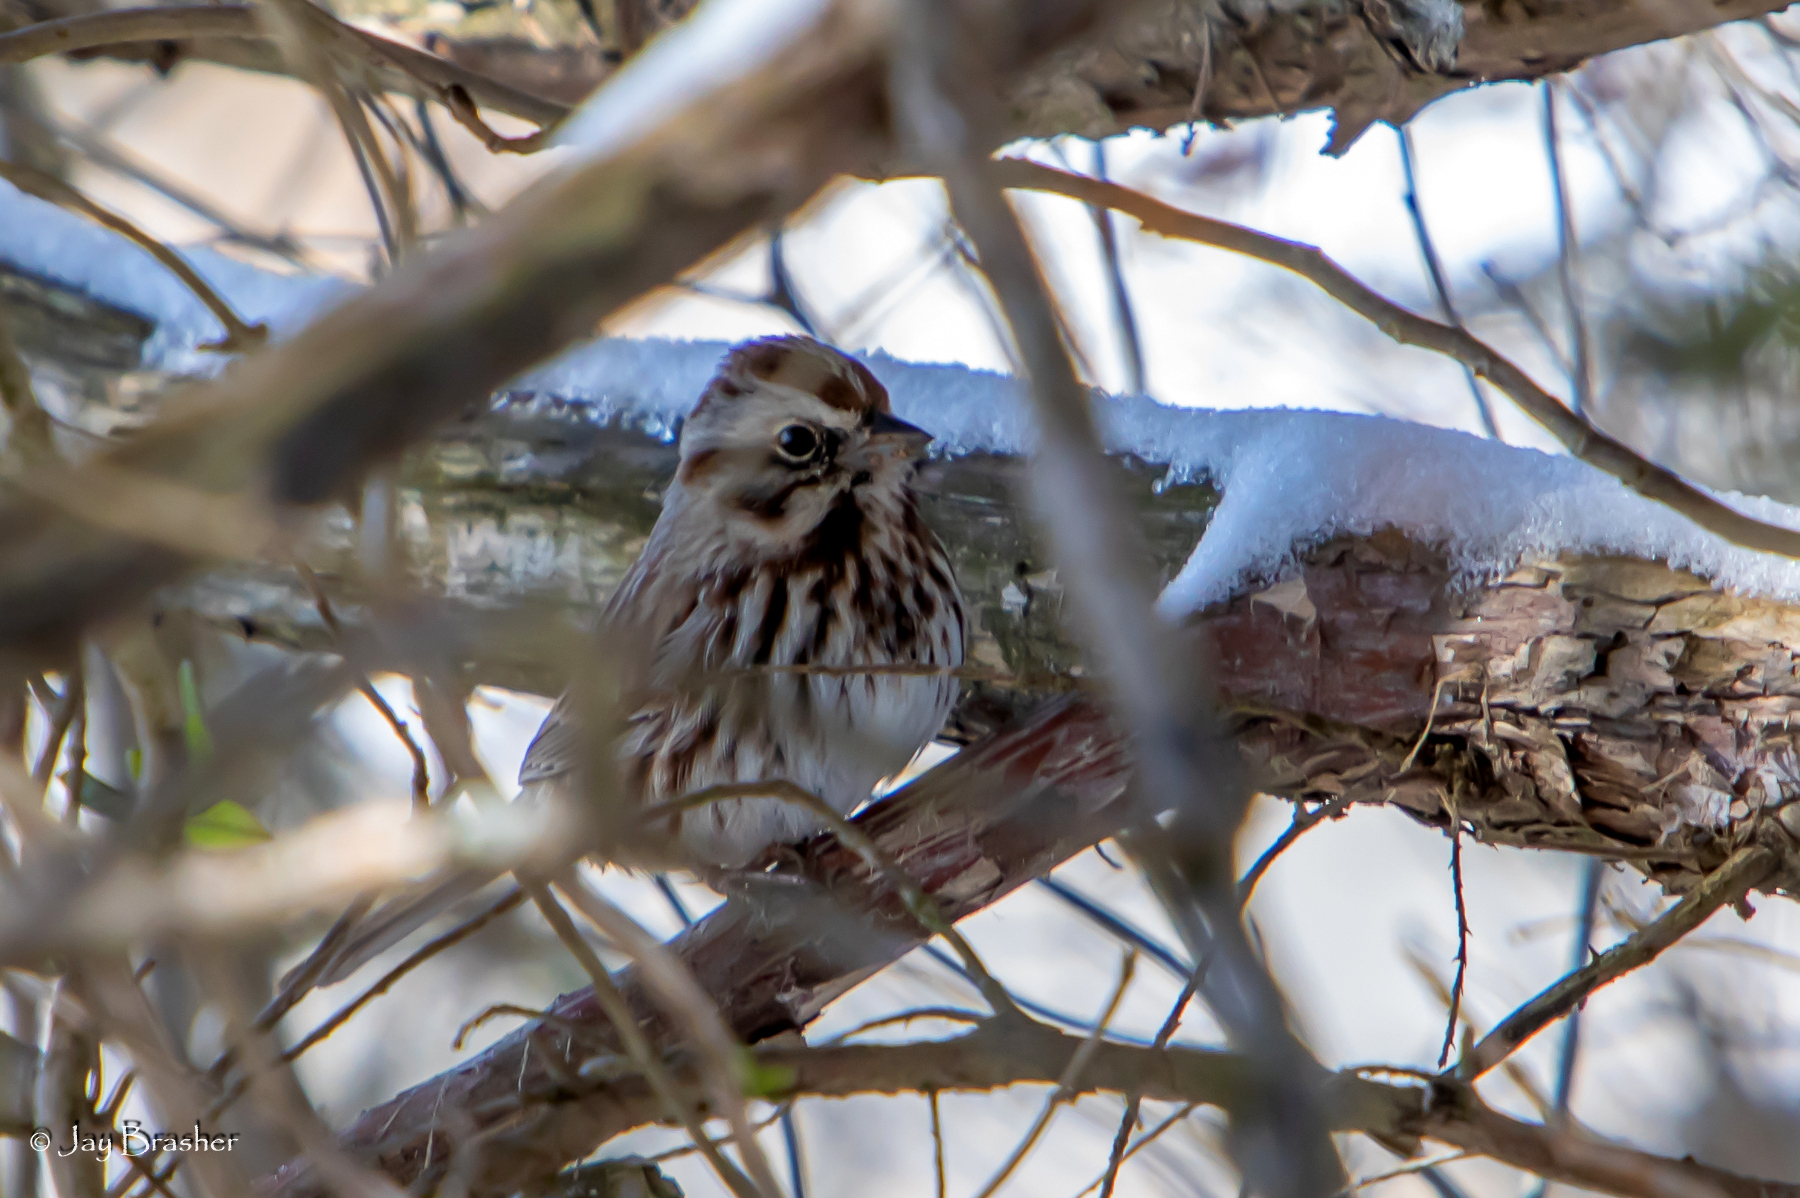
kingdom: Animalia
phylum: Chordata
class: Aves
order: Passeriformes
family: Passerellidae
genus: Melospiza
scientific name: Melospiza melodia
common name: Song sparrow
